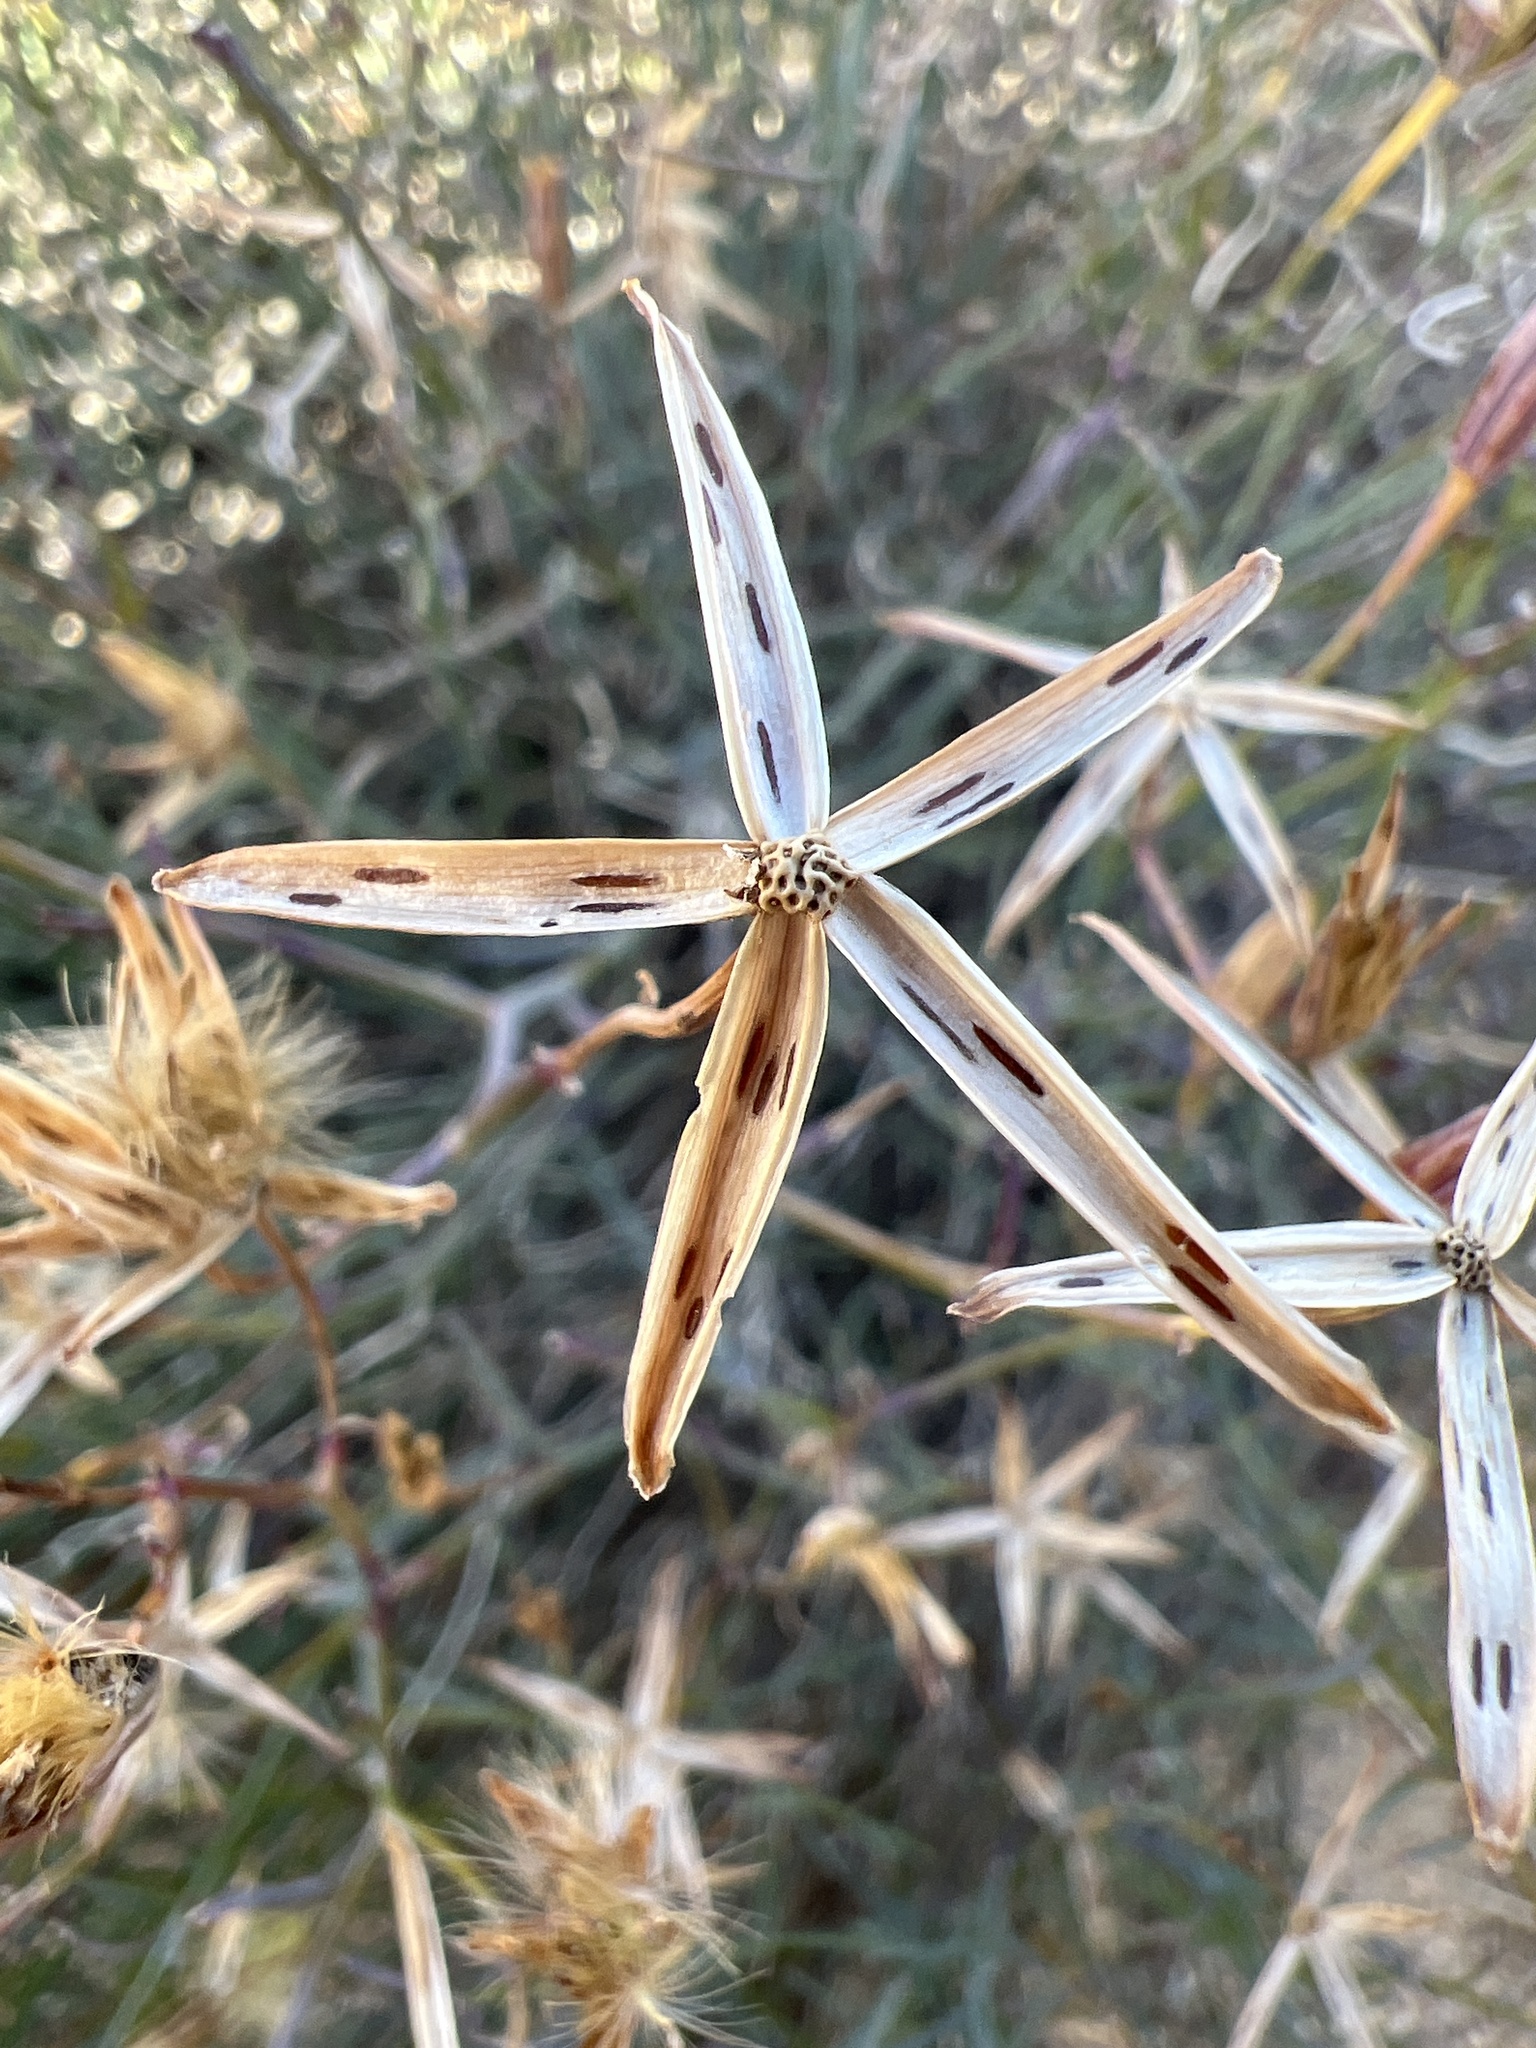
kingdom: Plantae
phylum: Tracheophyta
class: Magnoliopsida
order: Asterales
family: Asteraceae
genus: Porophyllum
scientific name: Porophyllum gracile
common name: Odora
